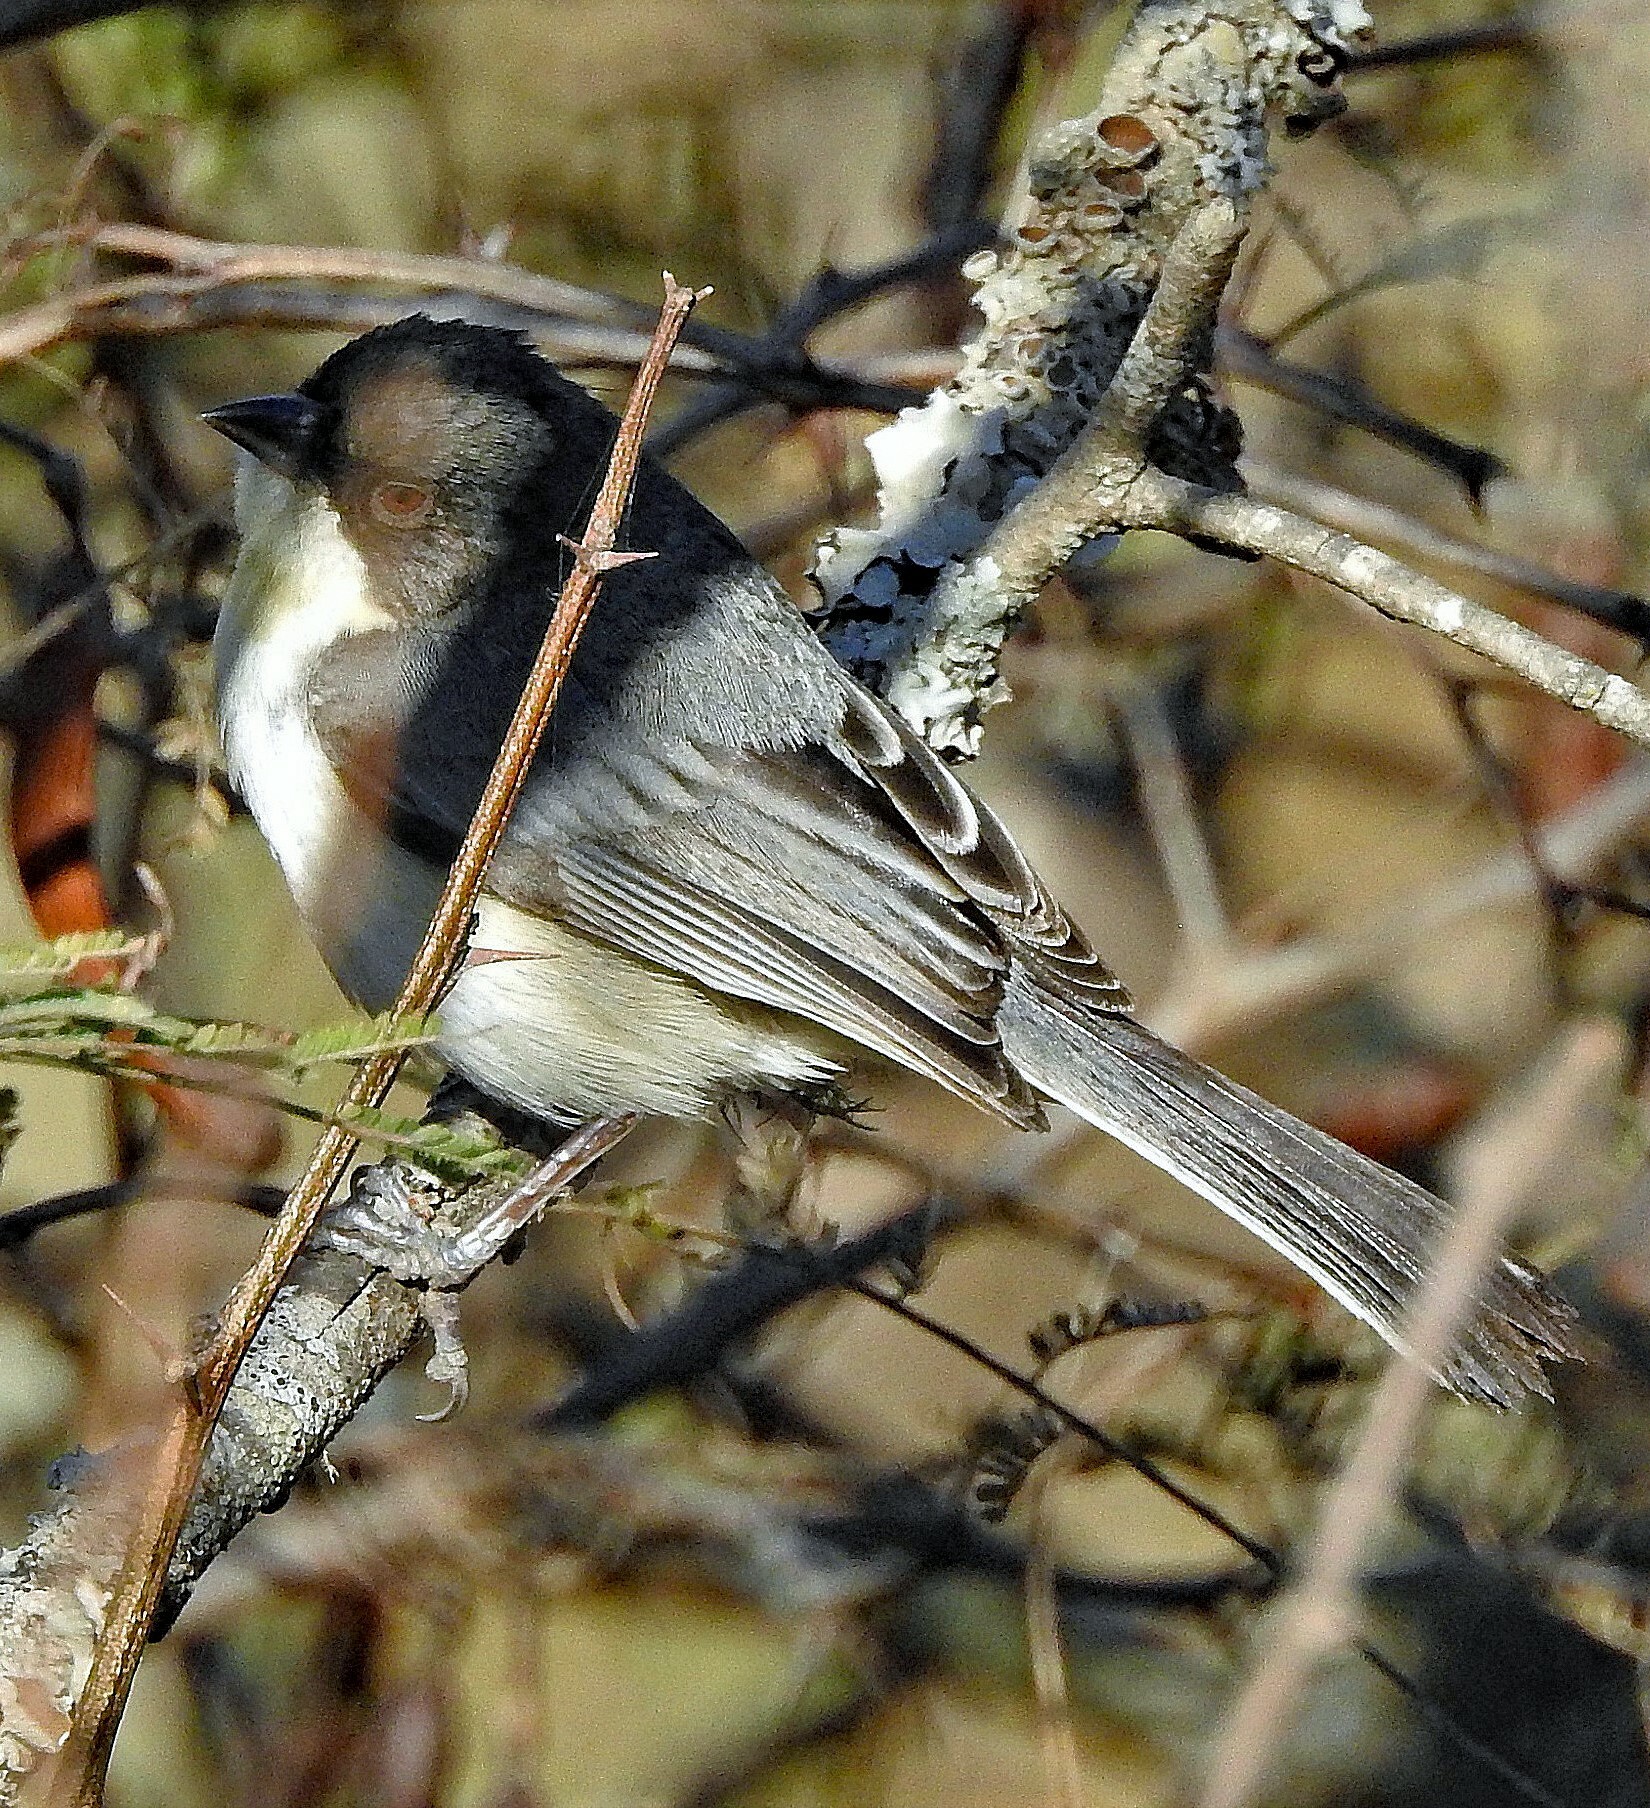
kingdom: Animalia
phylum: Chordata
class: Aves
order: Passeriformes
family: Thraupidae
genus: Microspingus
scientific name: Microspingus melanoleucus
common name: Black-capped warbling-finch
